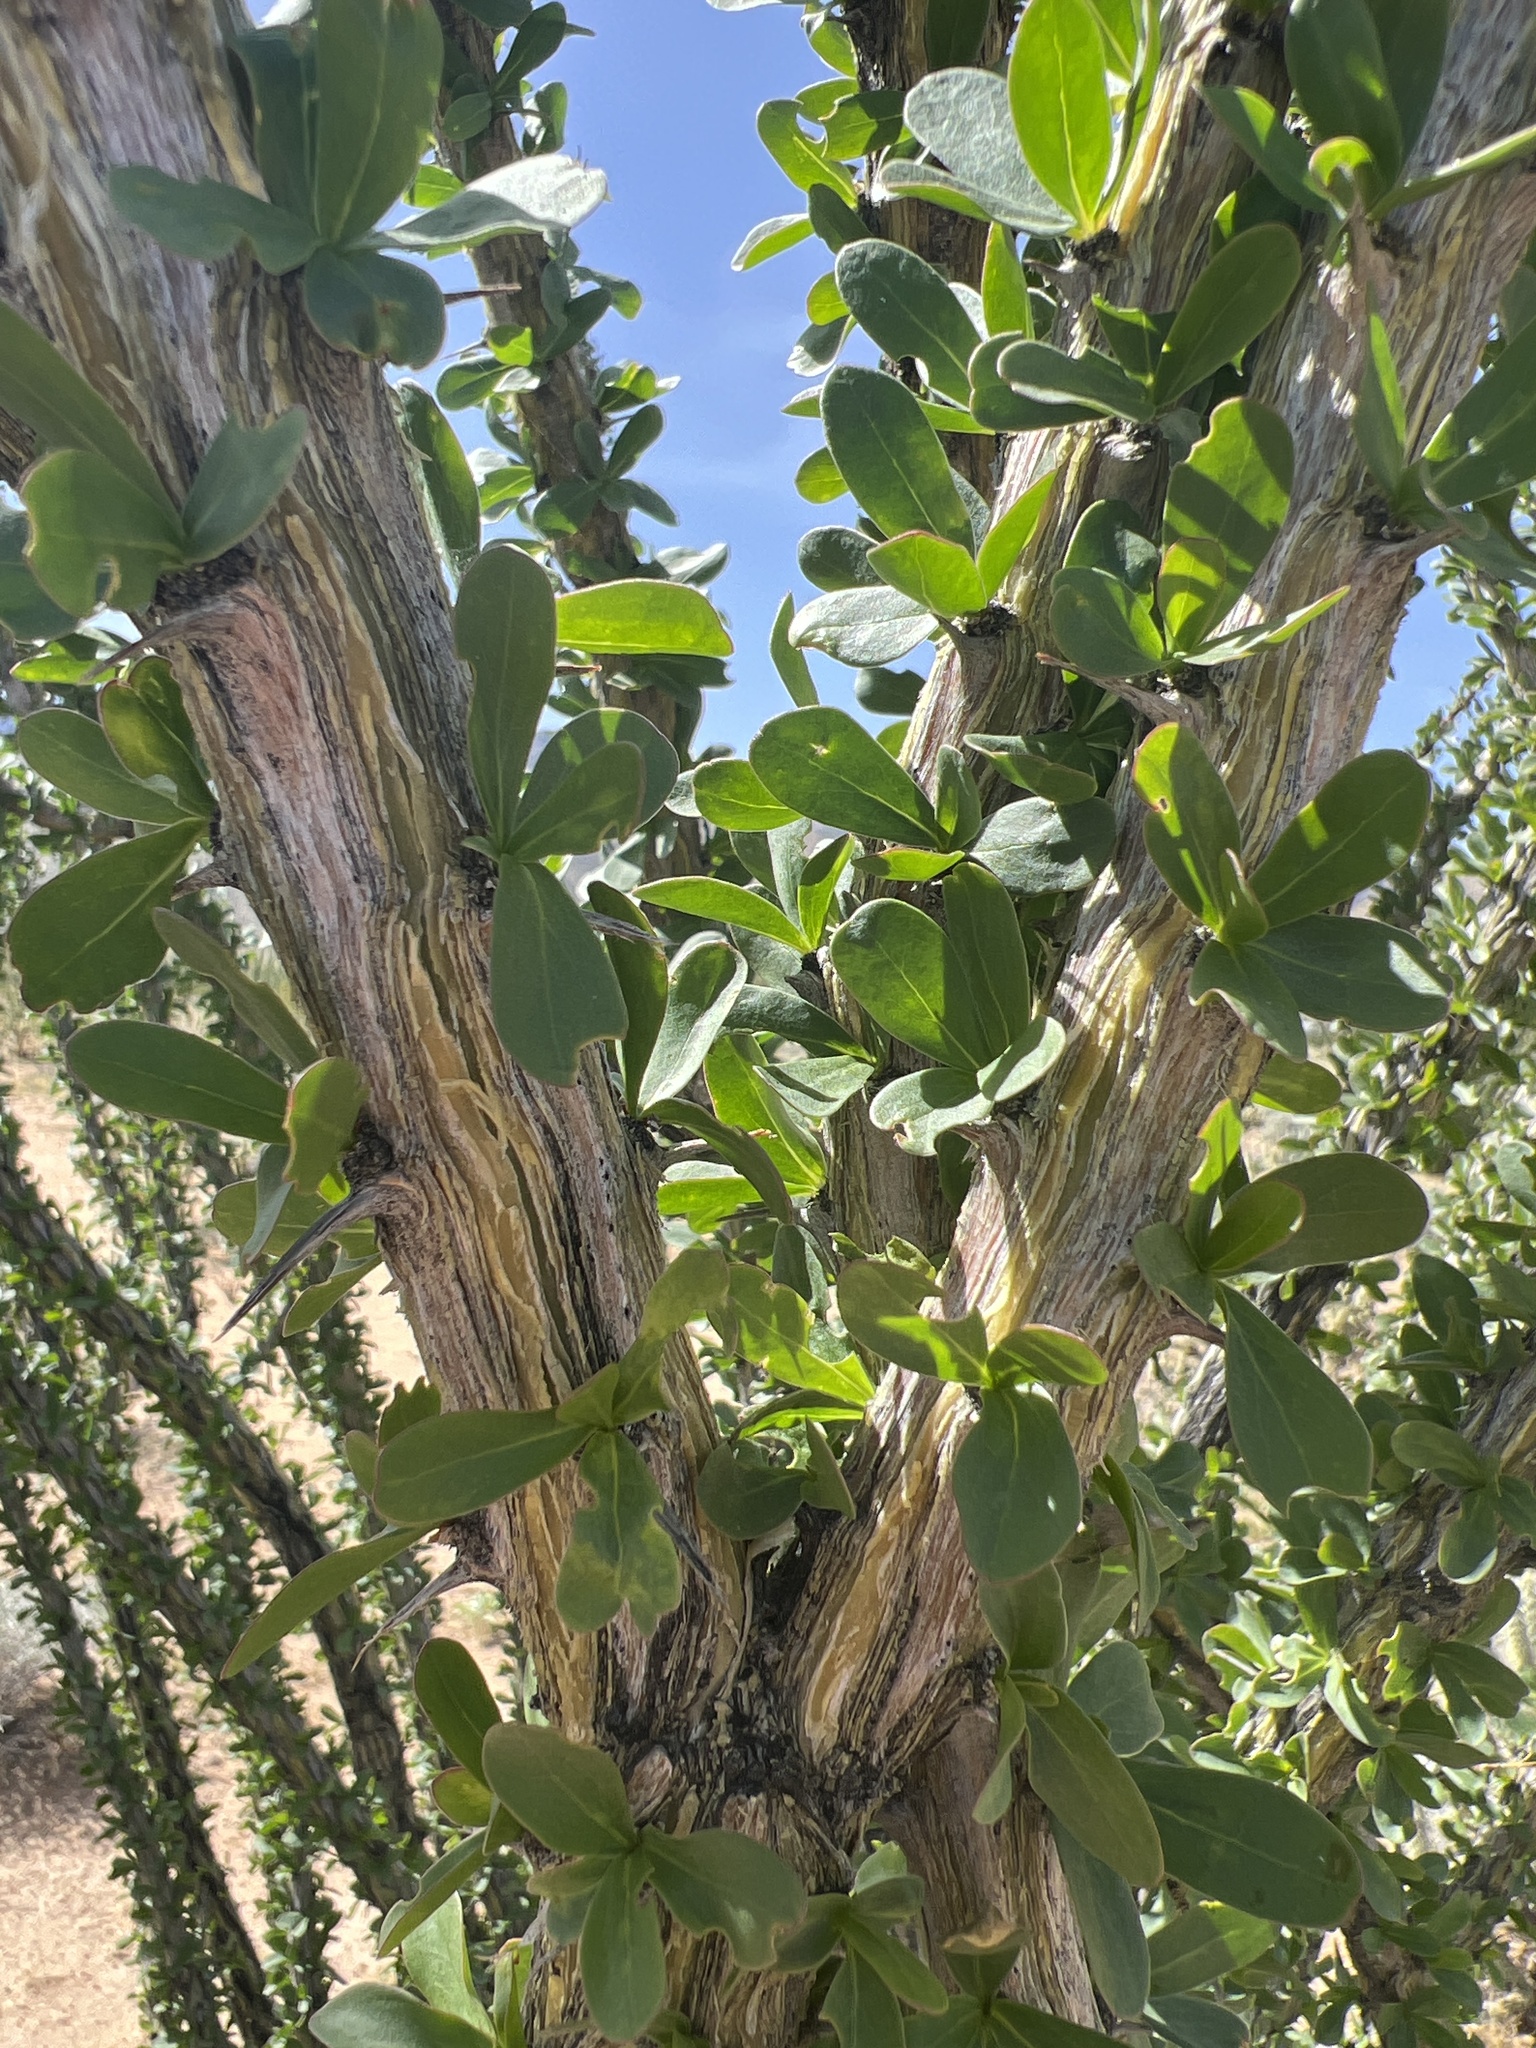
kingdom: Plantae
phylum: Tracheophyta
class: Magnoliopsida
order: Ericales
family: Fouquieriaceae
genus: Fouquieria
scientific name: Fouquieria splendens
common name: Vine-cactus
